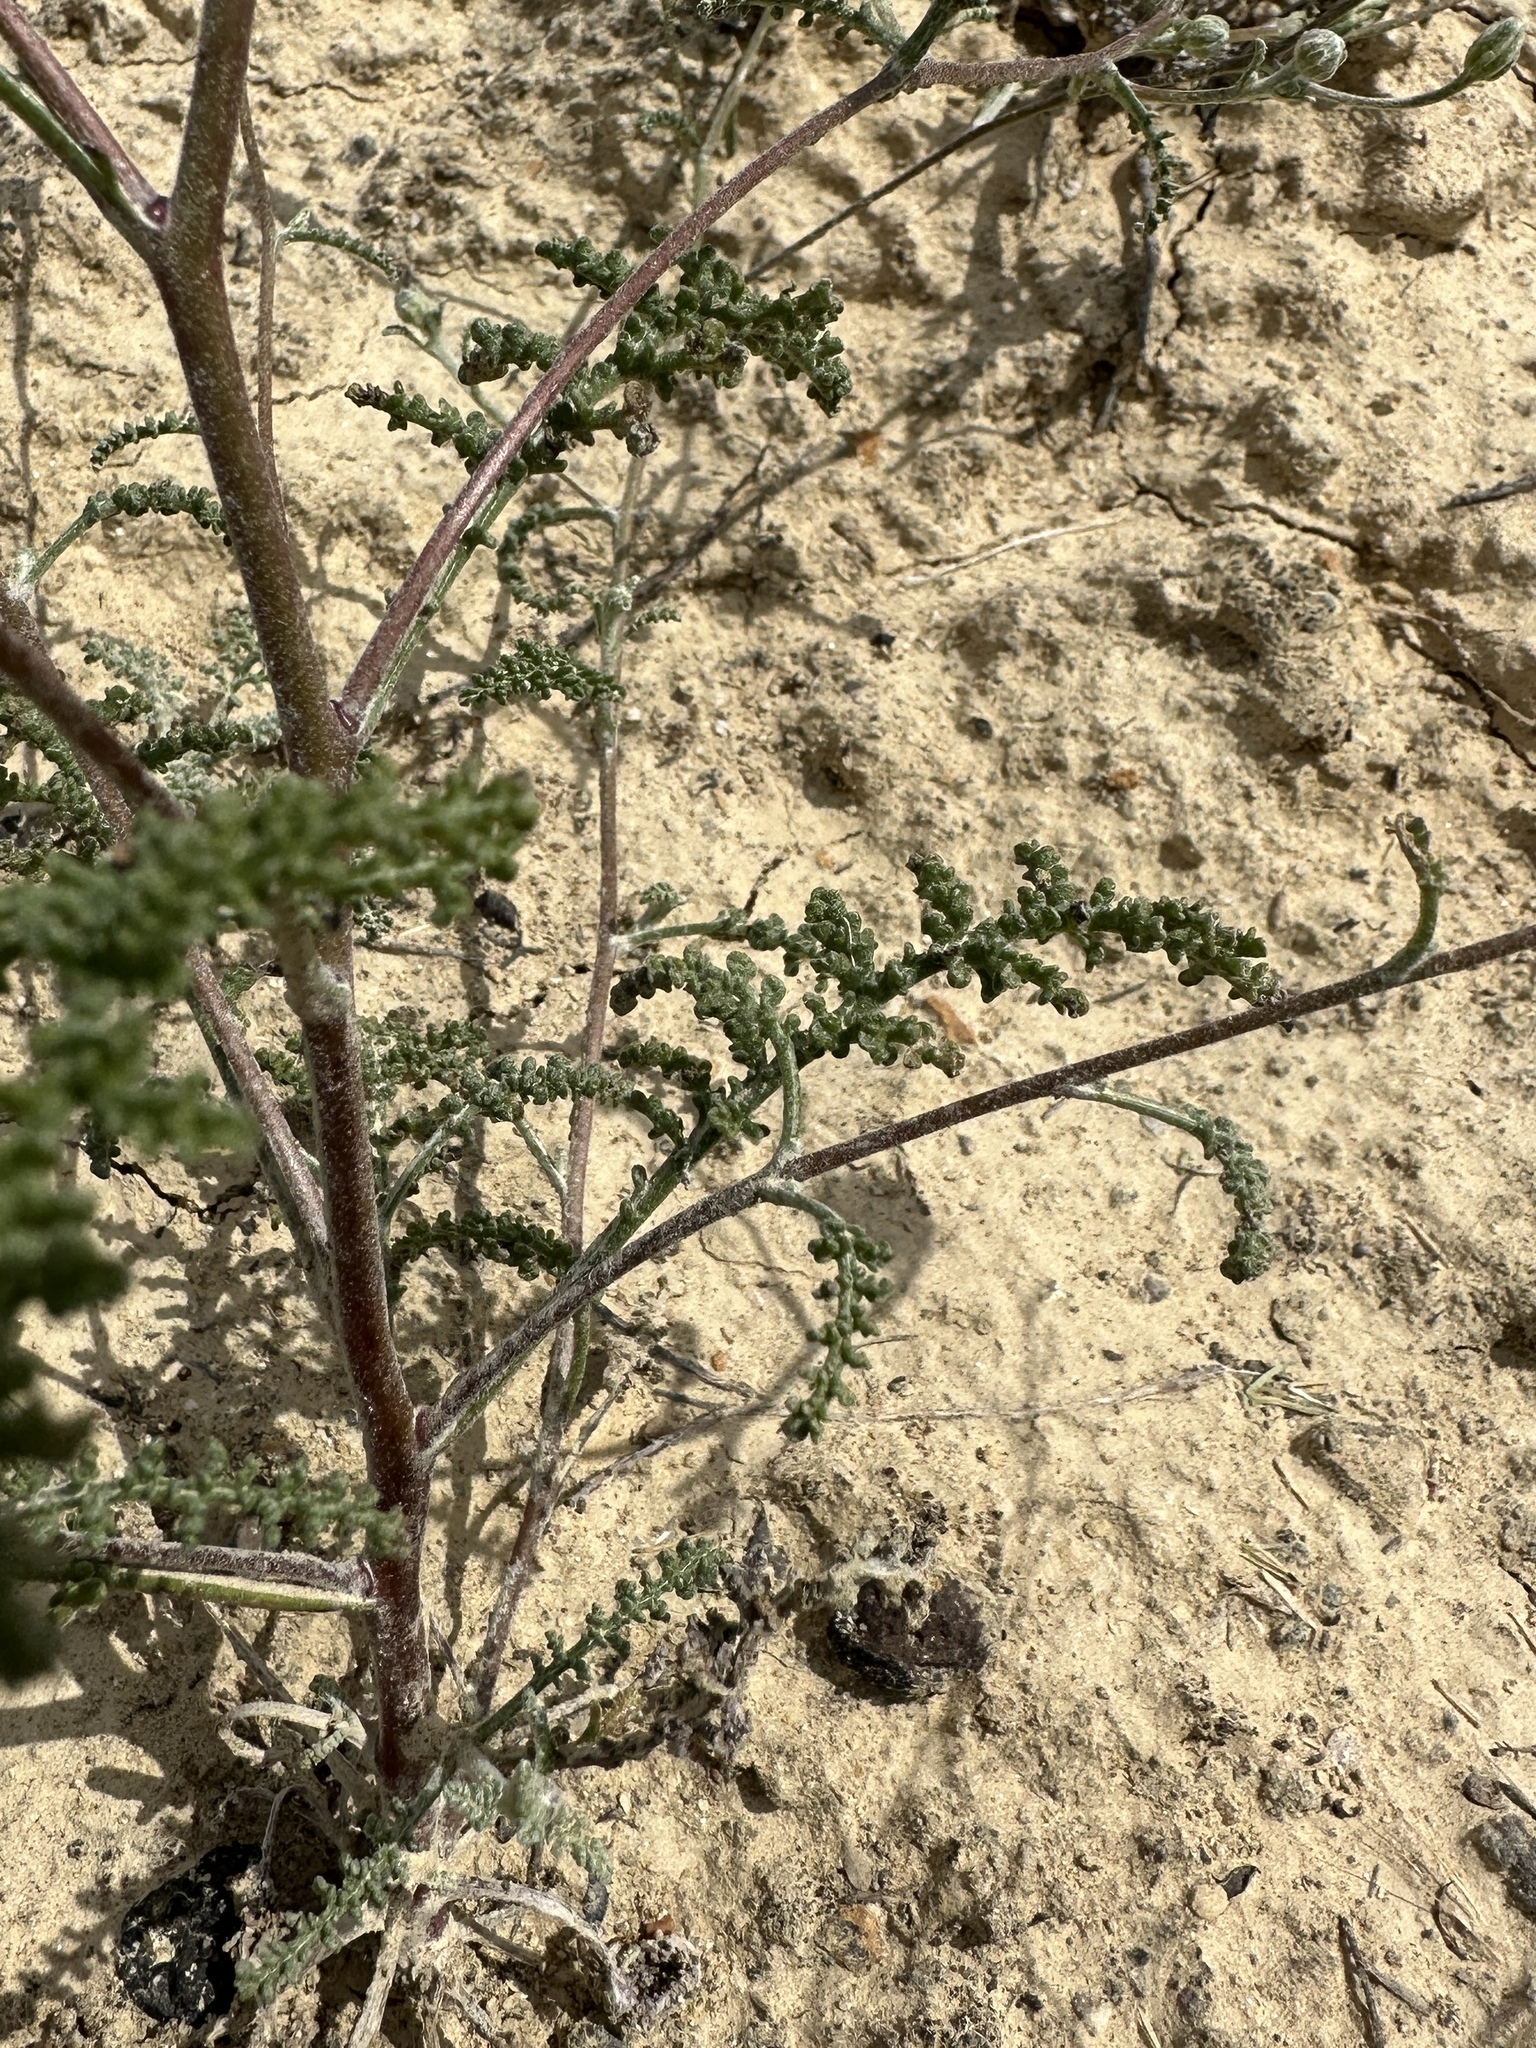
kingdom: Plantae
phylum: Tracheophyta
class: Magnoliopsida
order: Asterales
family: Asteraceae
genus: Chaenactis
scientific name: Chaenactis douglasii
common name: Hoary pincushion
